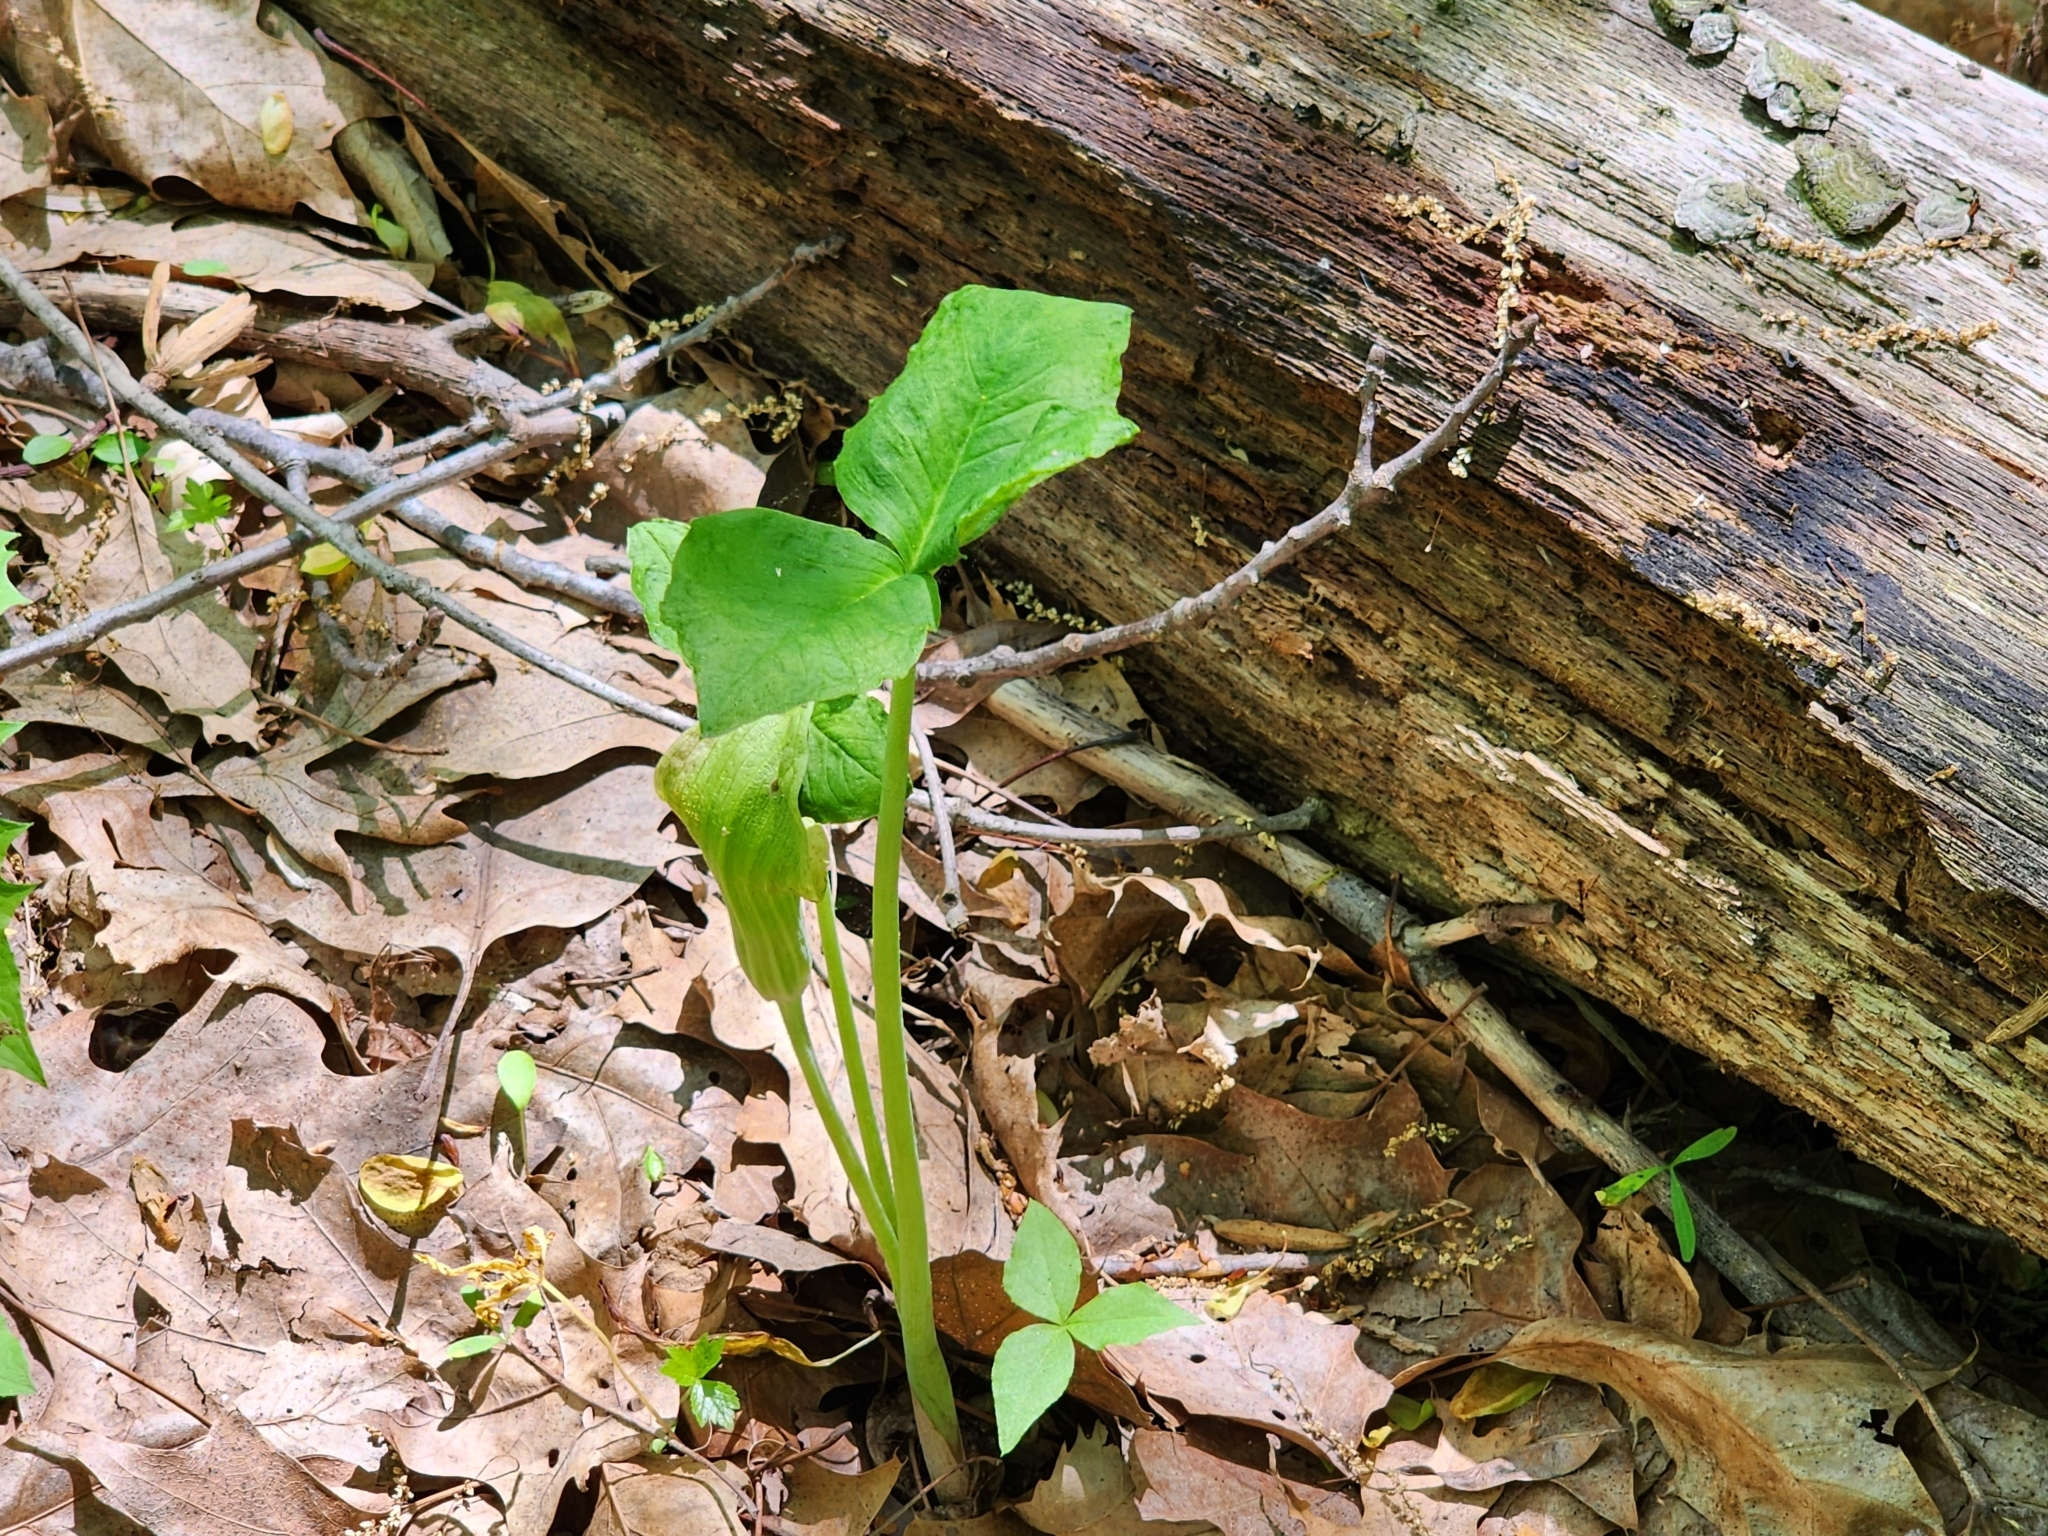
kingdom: Plantae
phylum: Tracheophyta
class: Liliopsida
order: Alismatales
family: Araceae
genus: Arisaema
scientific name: Arisaema triphyllum
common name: Jack-in-the-pulpit
